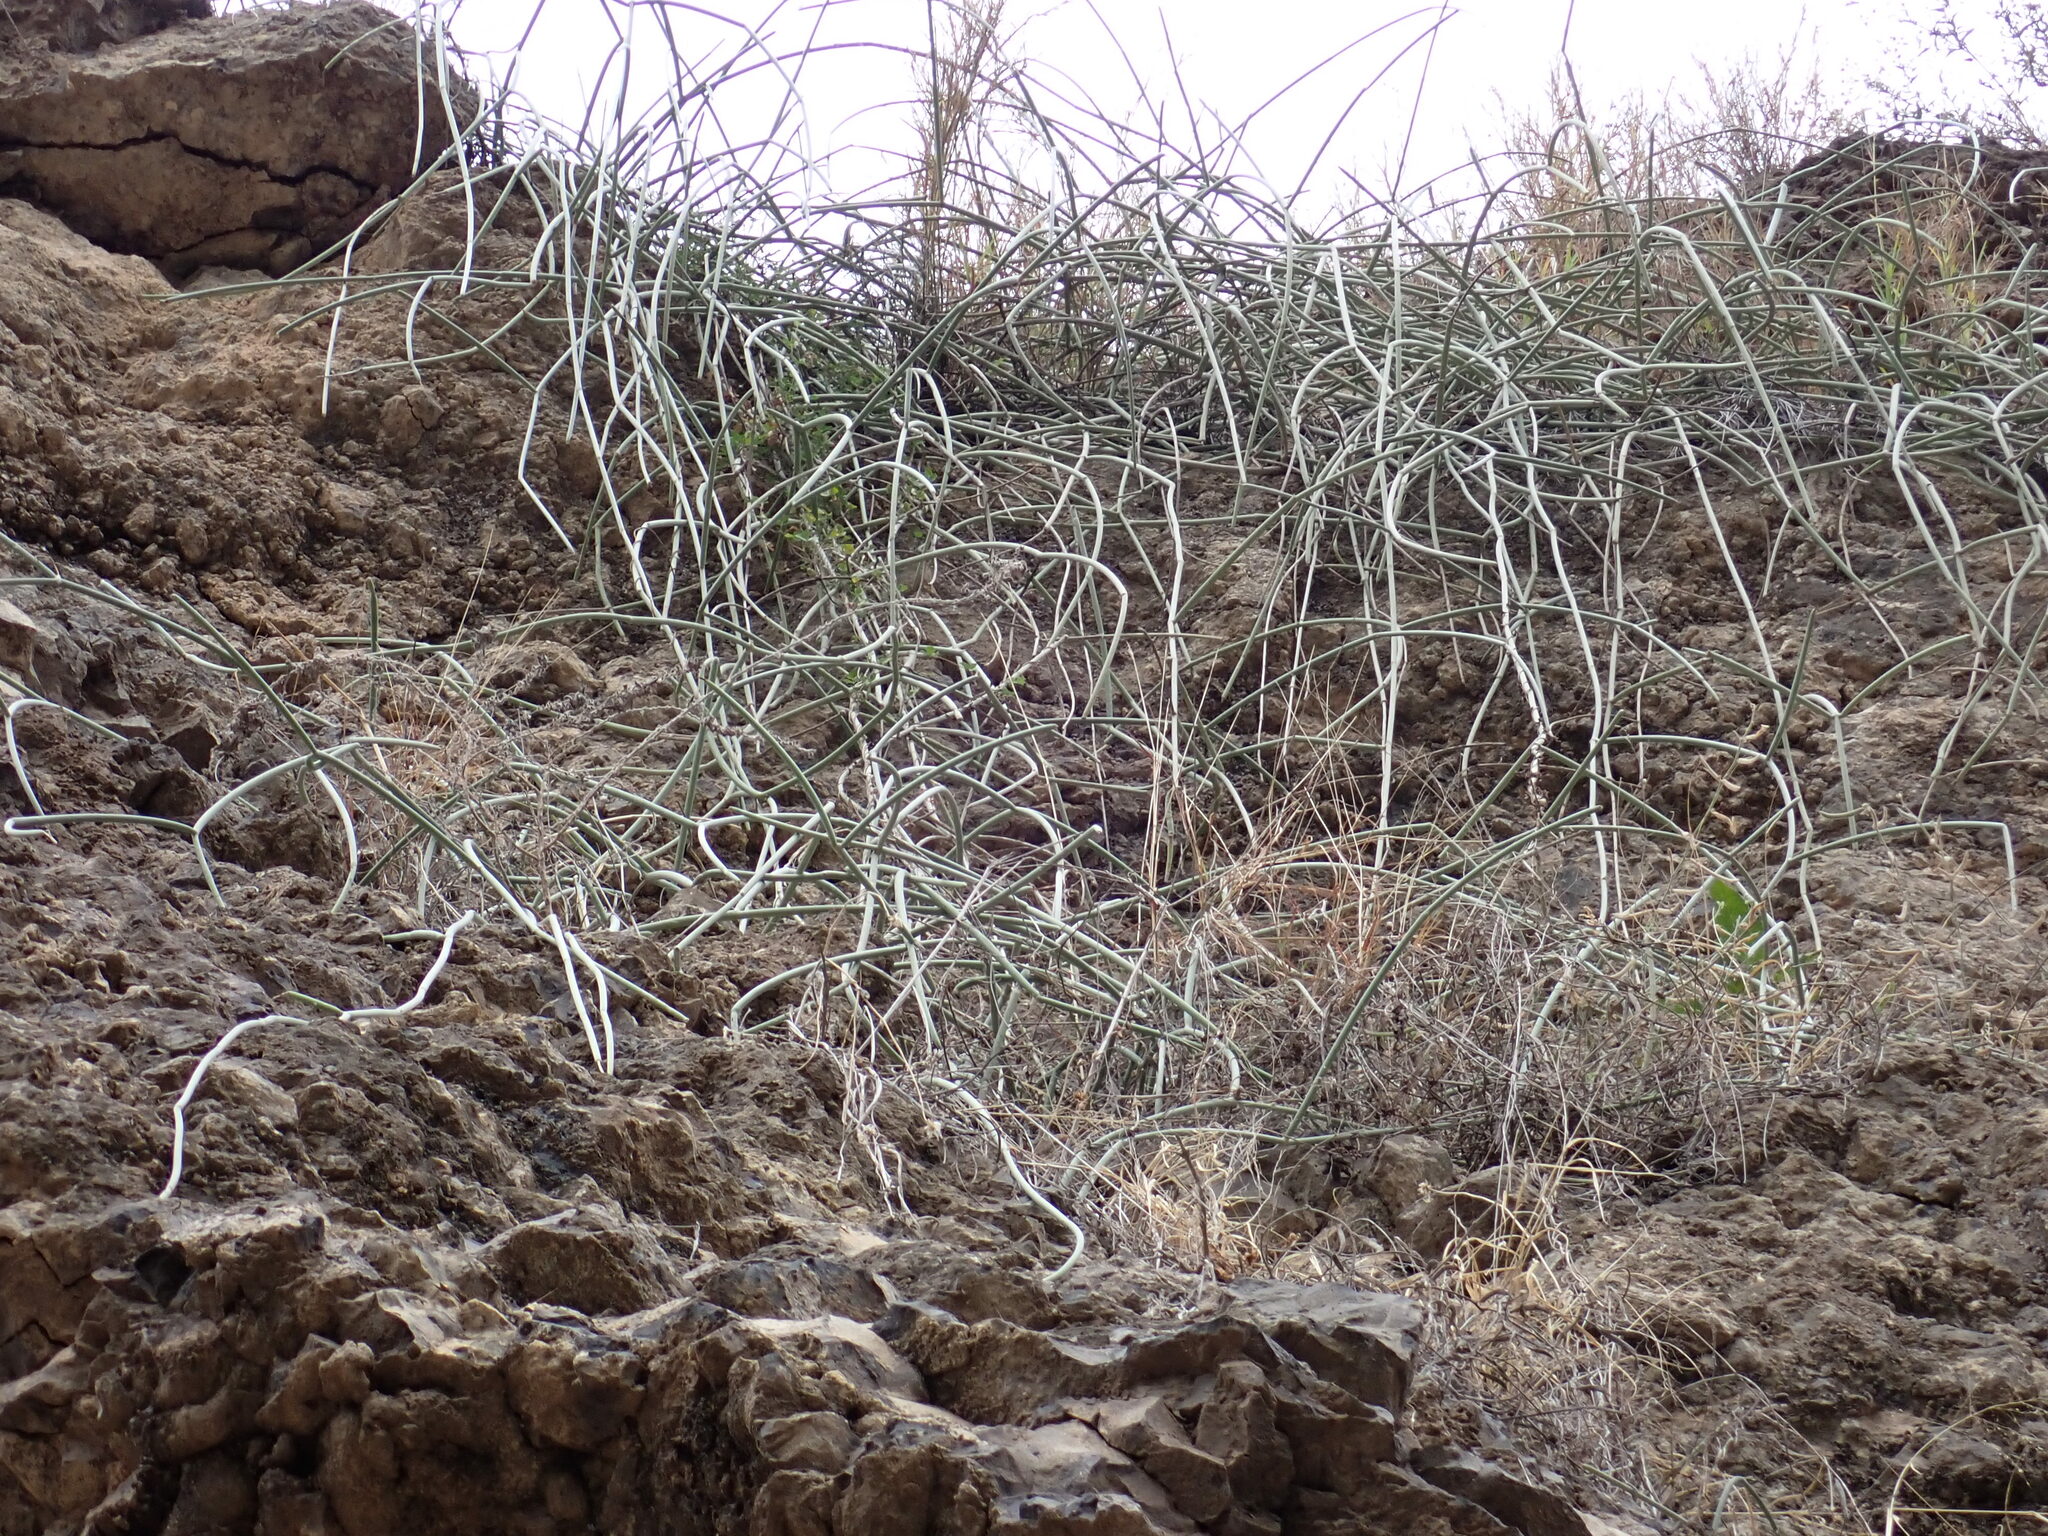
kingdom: Plantae
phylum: Tracheophyta
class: Magnoliopsida
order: Gentianales
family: Apocynaceae
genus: Cynanchum
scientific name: Cynanchum daltonii
